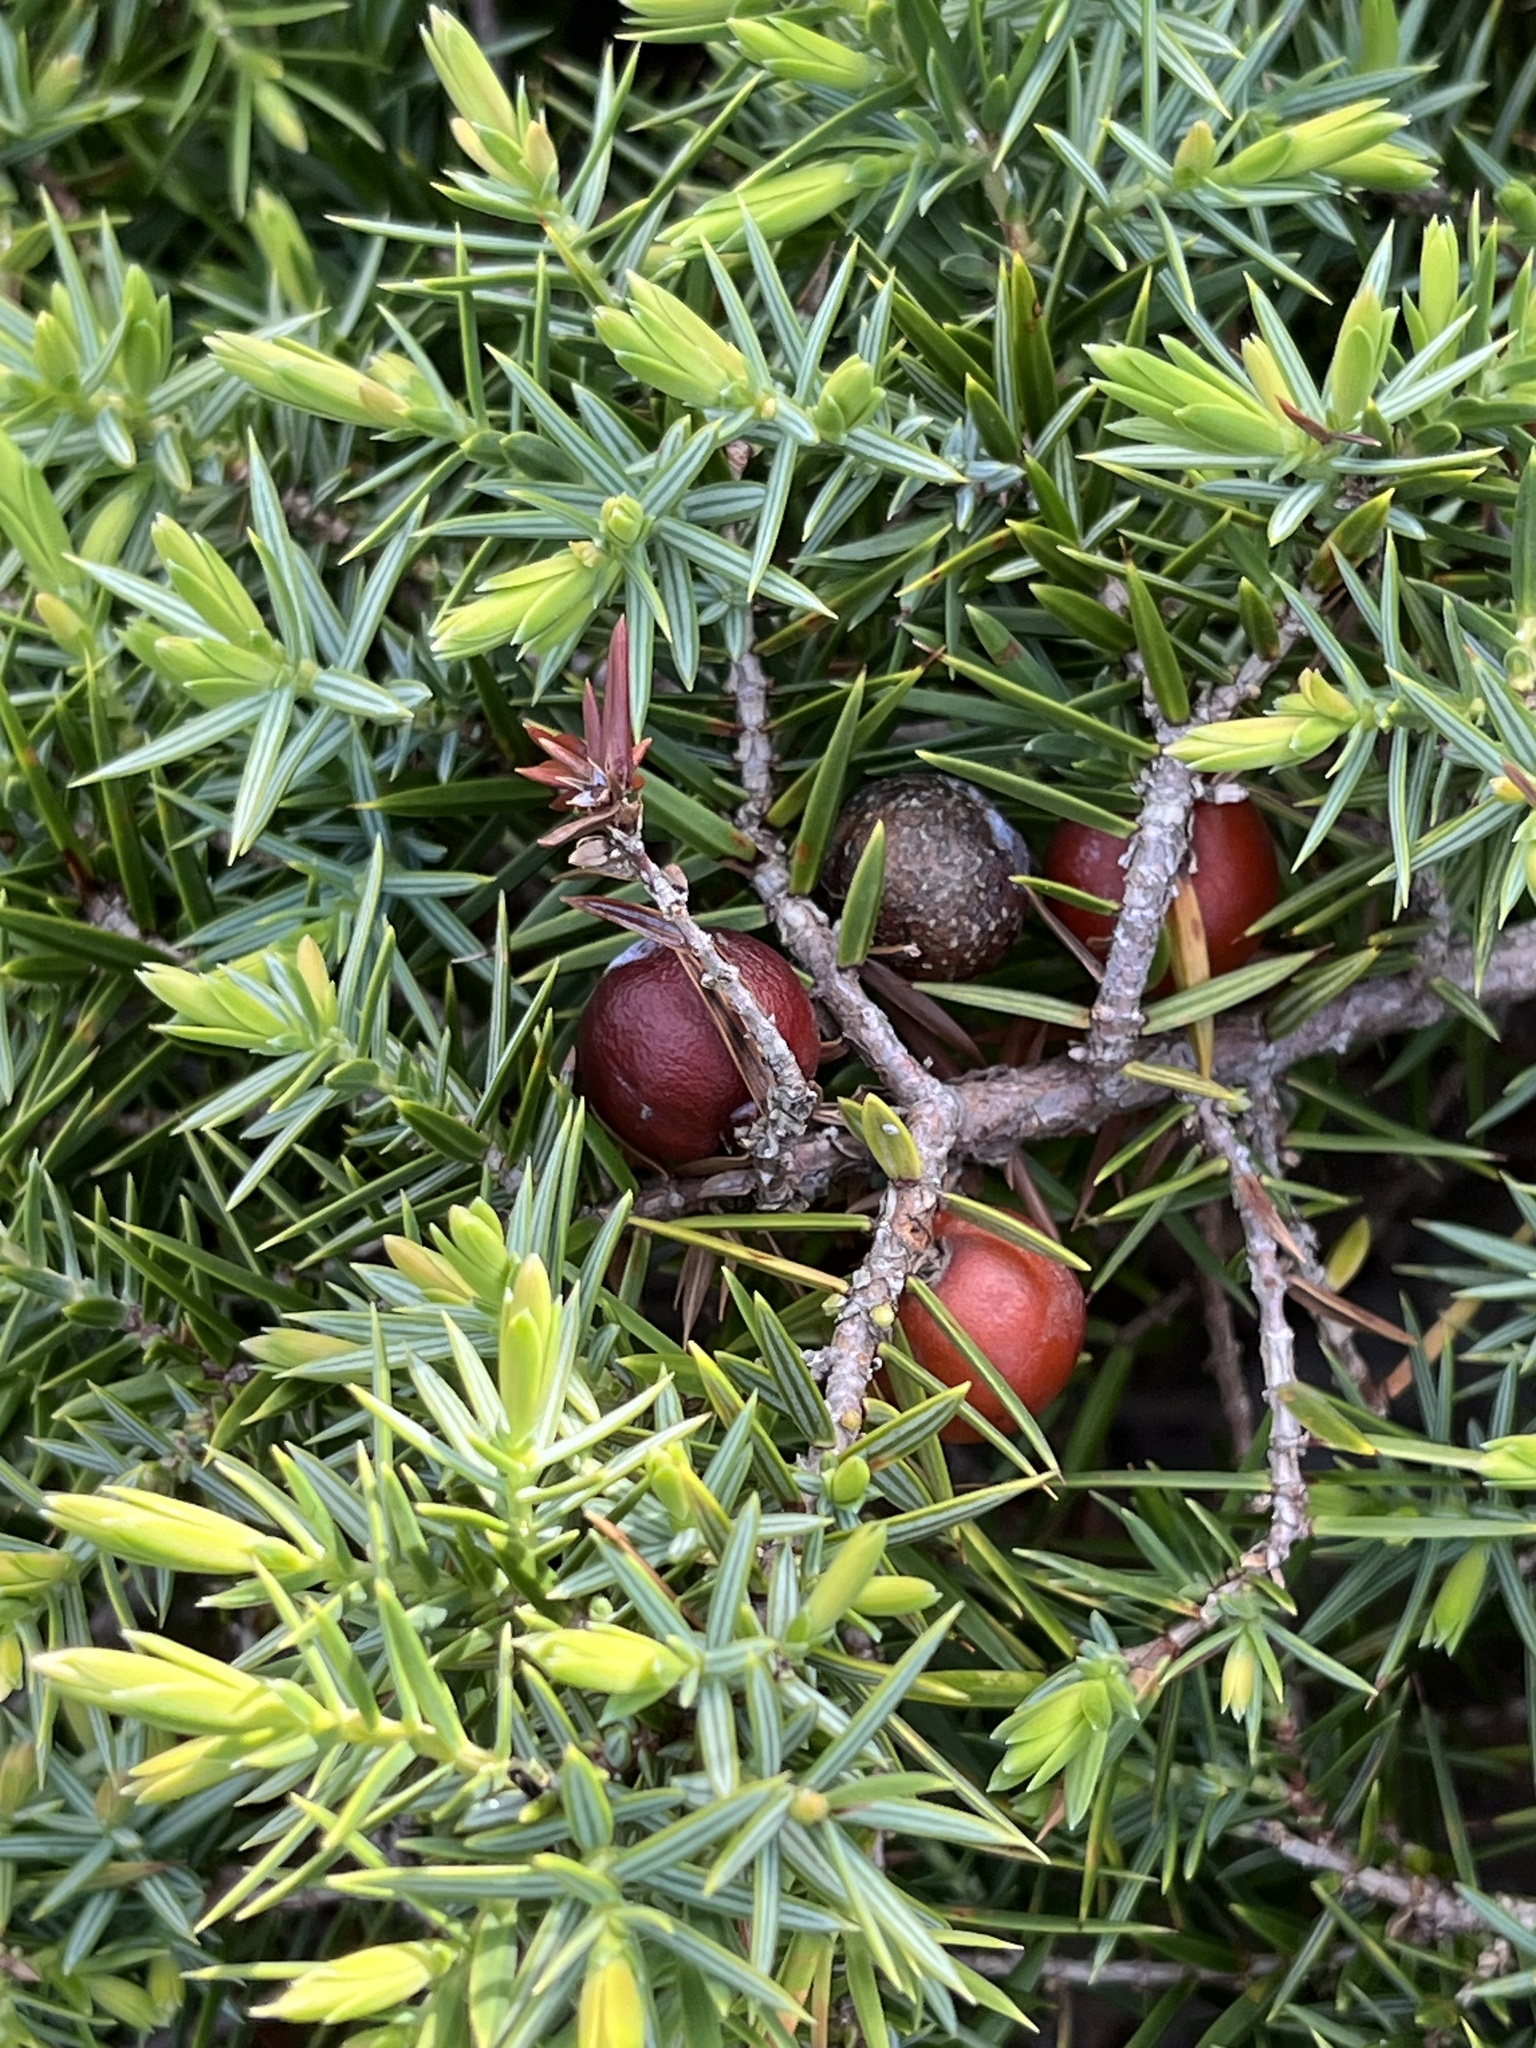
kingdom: Plantae
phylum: Tracheophyta
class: Pinopsida
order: Pinales
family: Cupressaceae
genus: Juniperus
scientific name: Juniperus oxycedrus
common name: Prickly juniper
